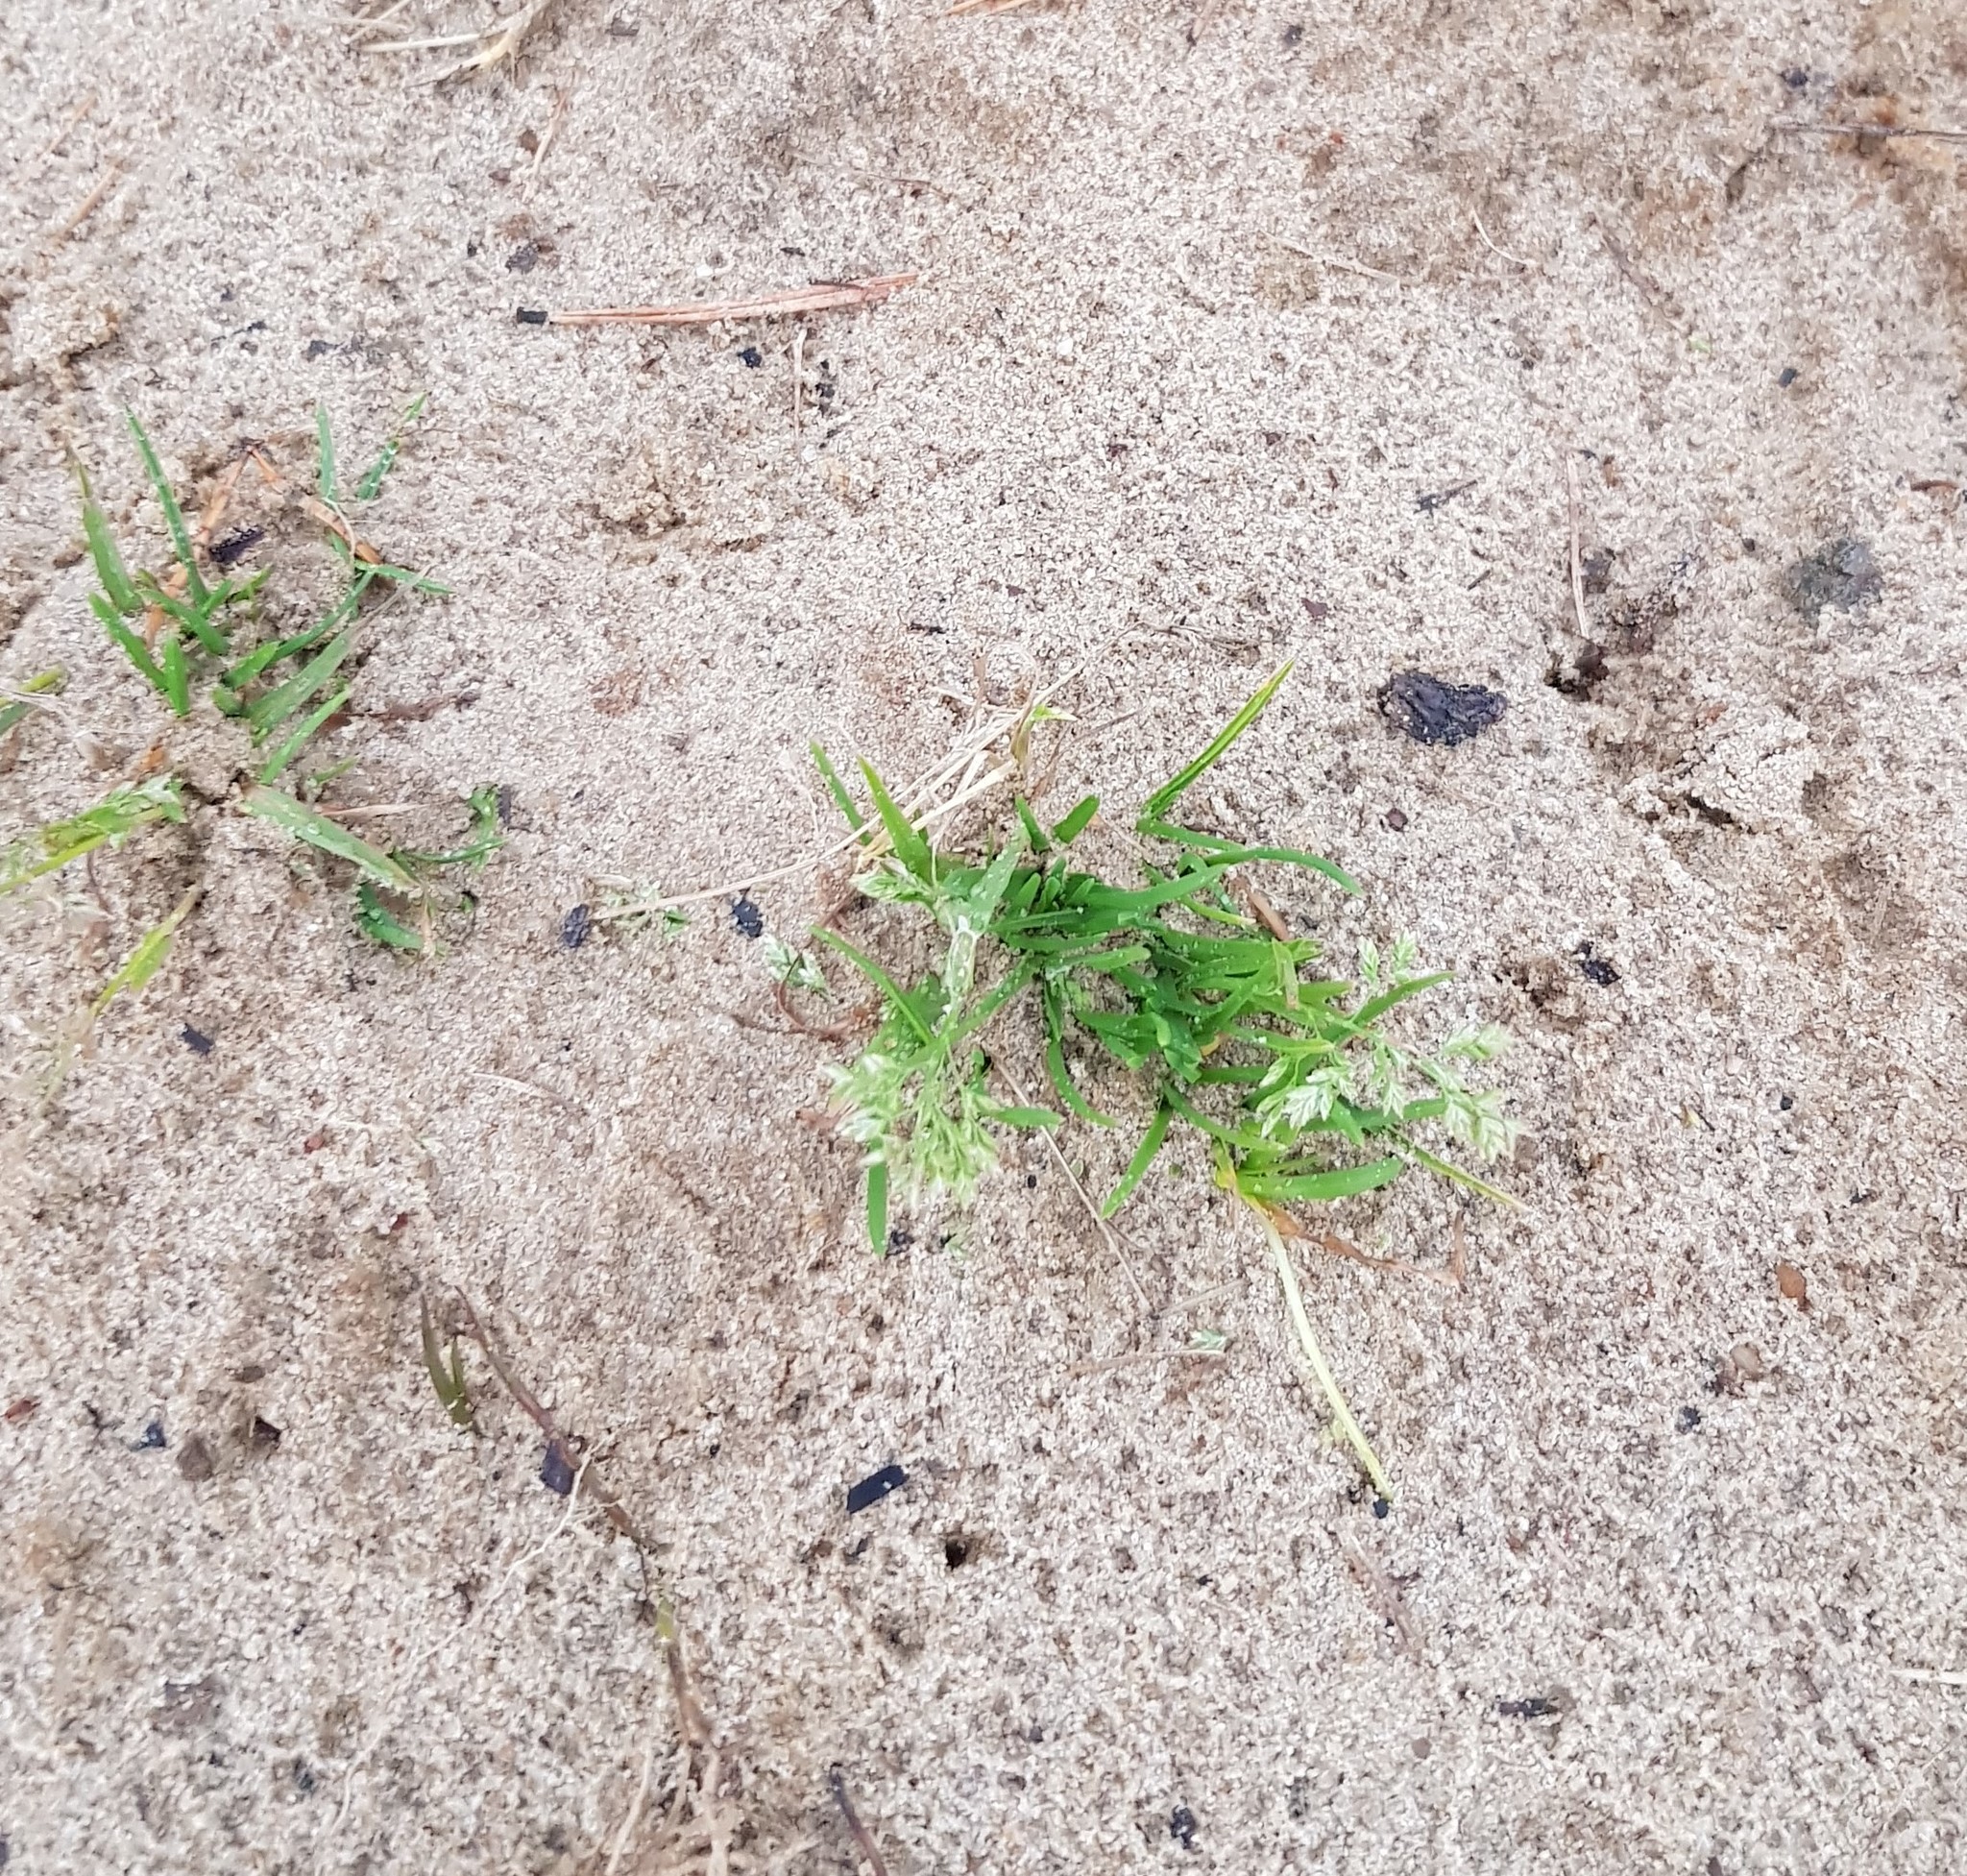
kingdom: Plantae
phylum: Tracheophyta
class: Liliopsida
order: Poales
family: Poaceae
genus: Poa
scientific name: Poa annua
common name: Annual bluegrass
